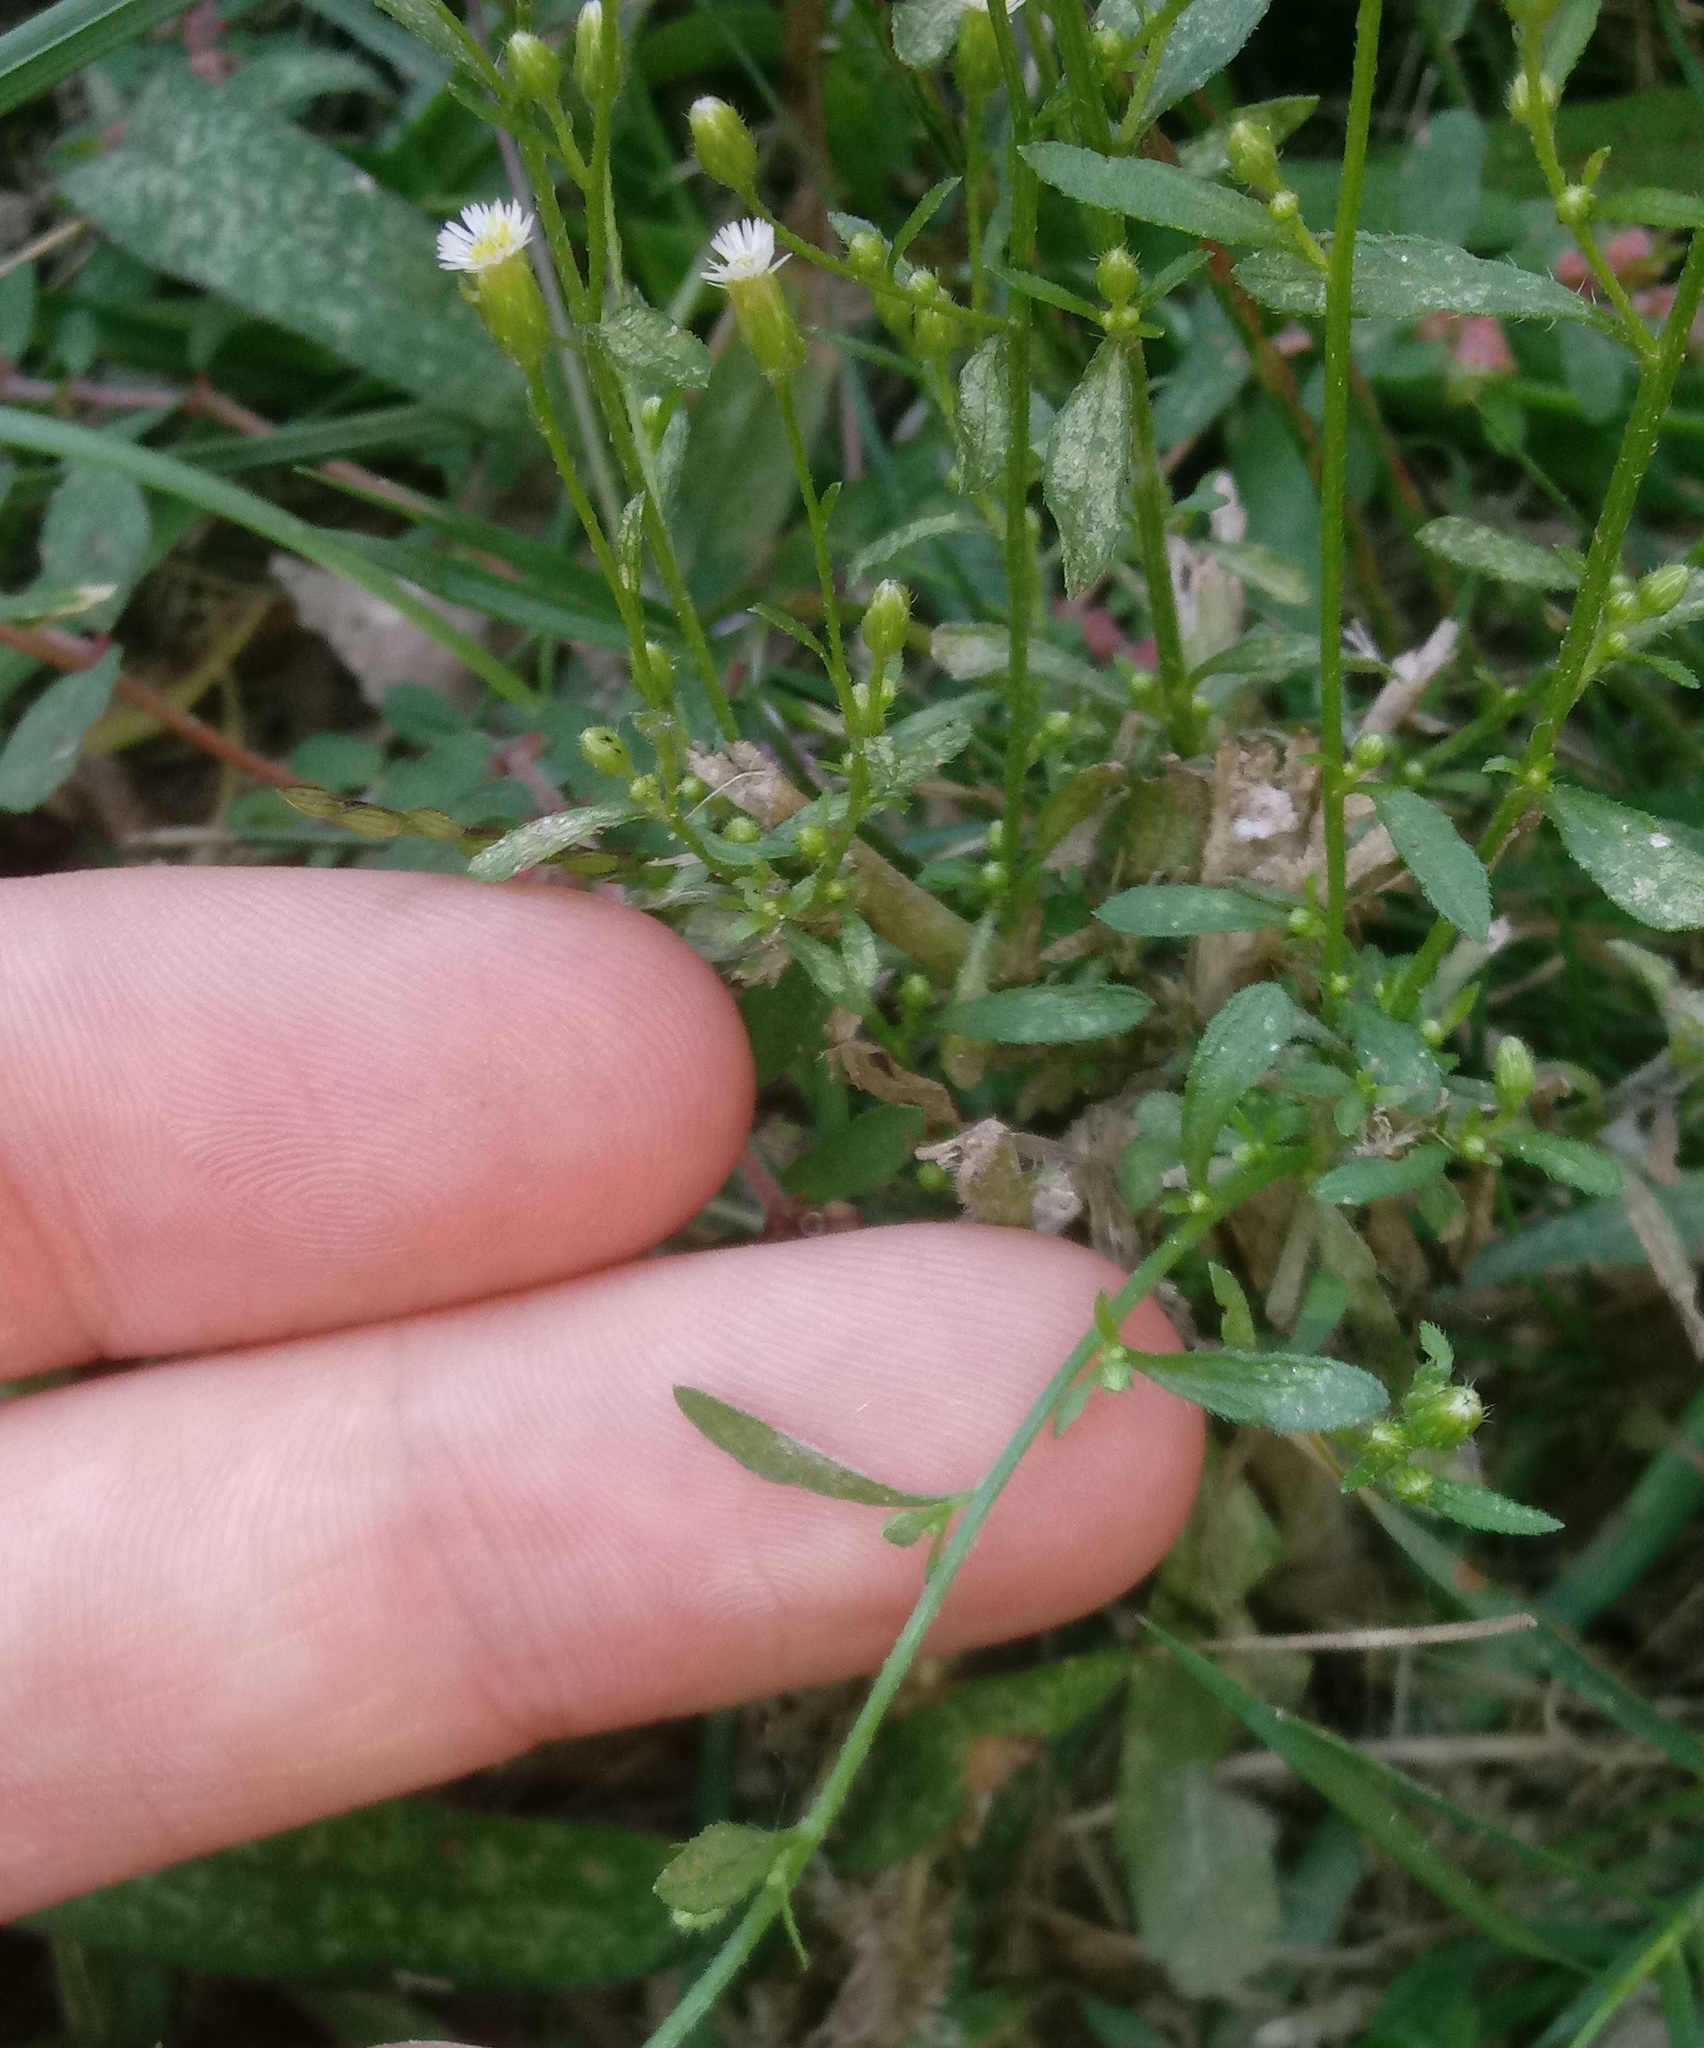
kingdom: Plantae
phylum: Tracheophyta
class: Magnoliopsida
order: Asterales
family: Asteraceae
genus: Erigeron
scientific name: Erigeron canadensis
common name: Canadian fleabane
